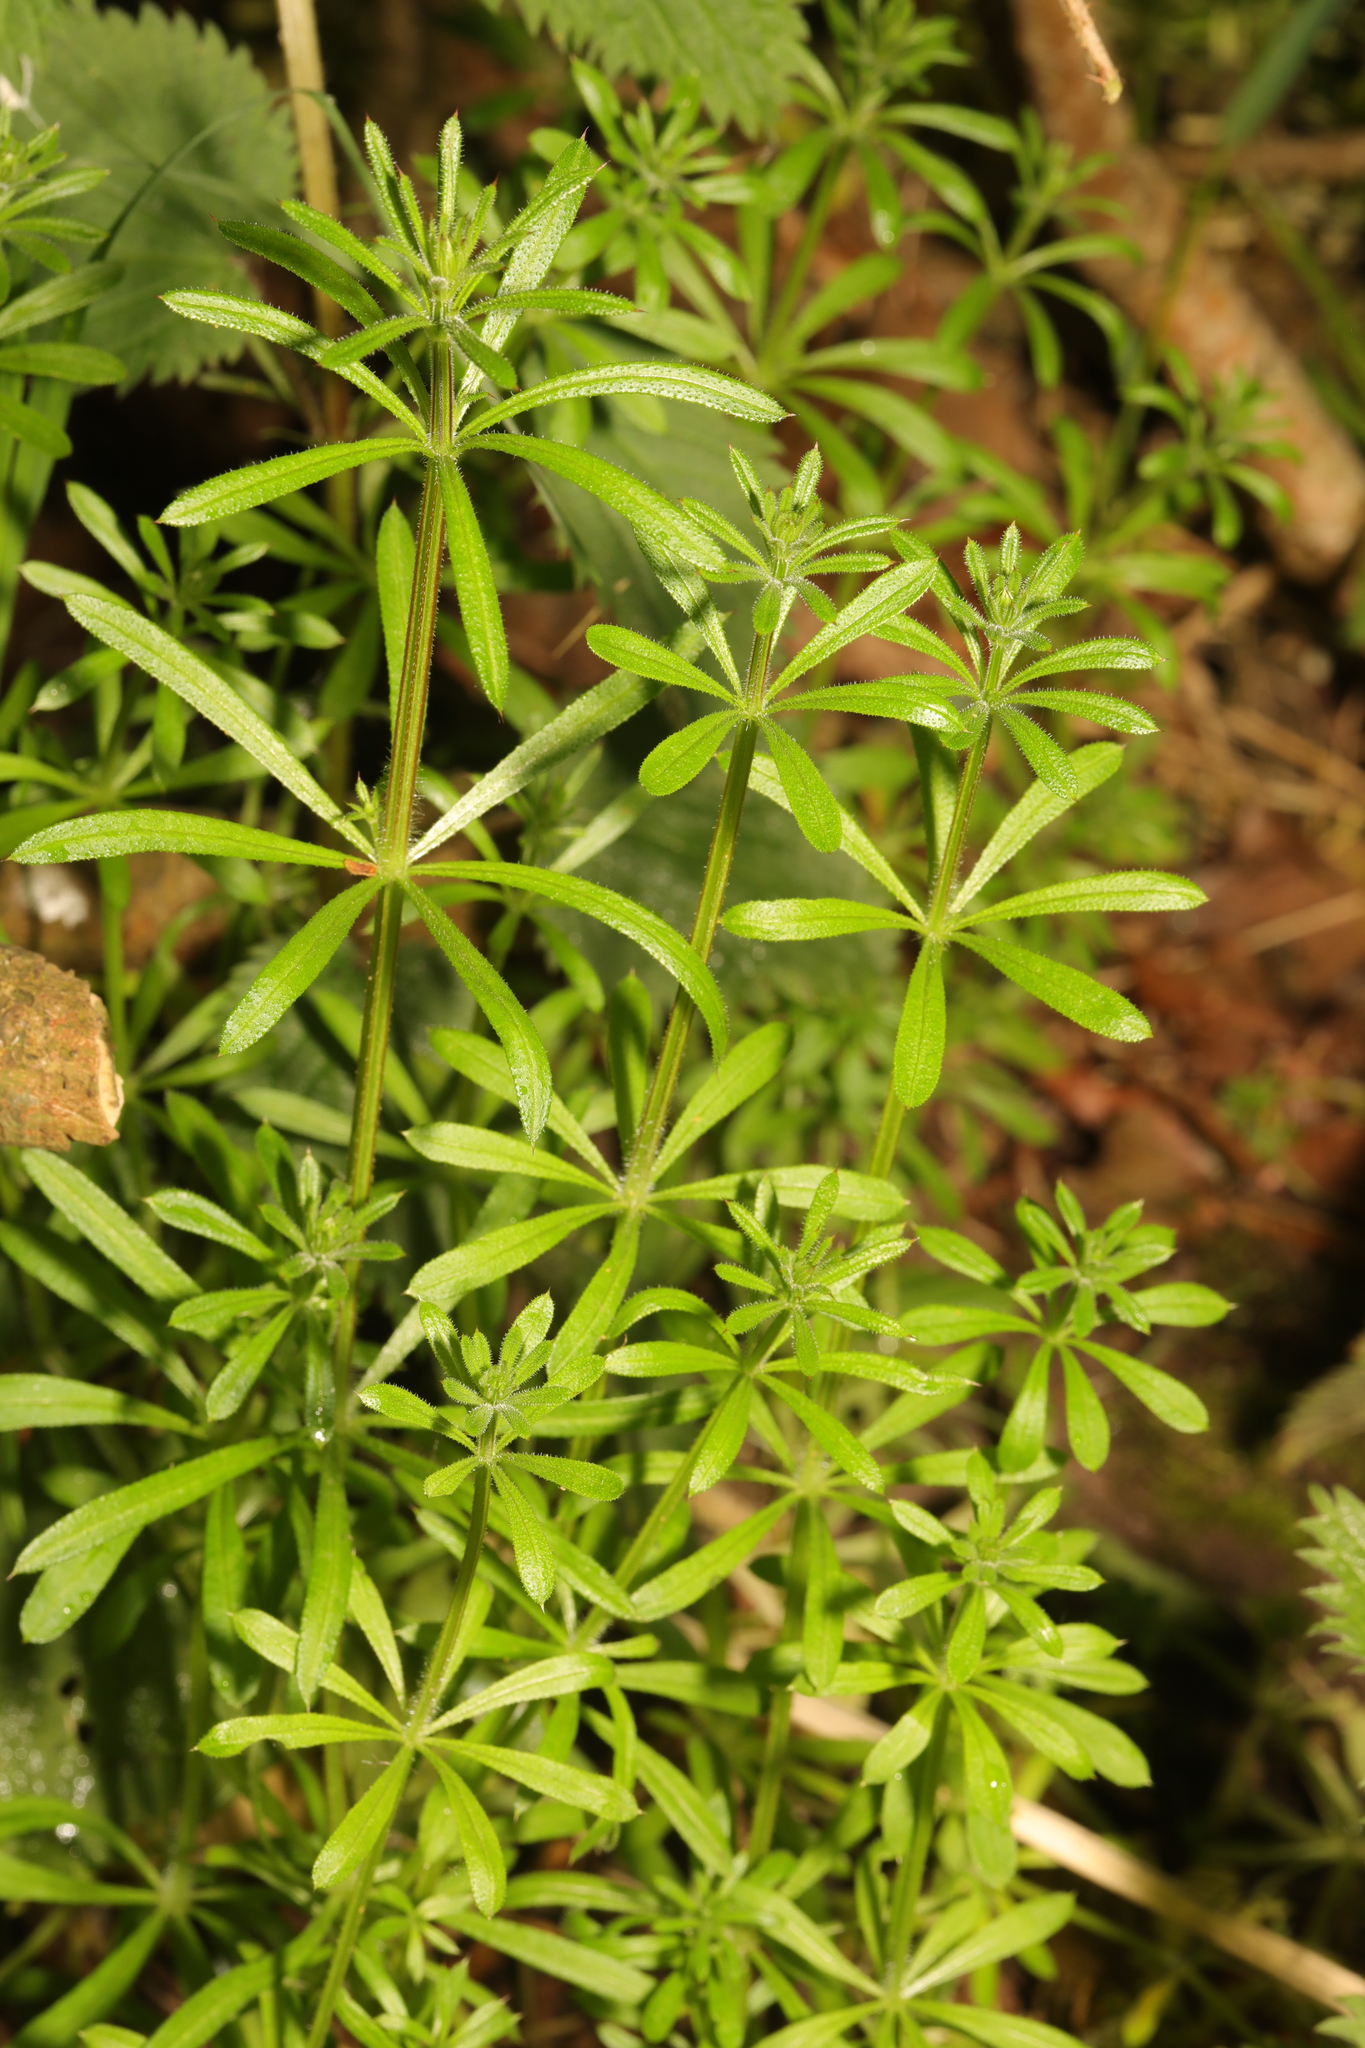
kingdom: Plantae
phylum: Tracheophyta
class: Magnoliopsida
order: Gentianales
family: Rubiaceae
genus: Galium
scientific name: Galium aparine
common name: Cleavers
